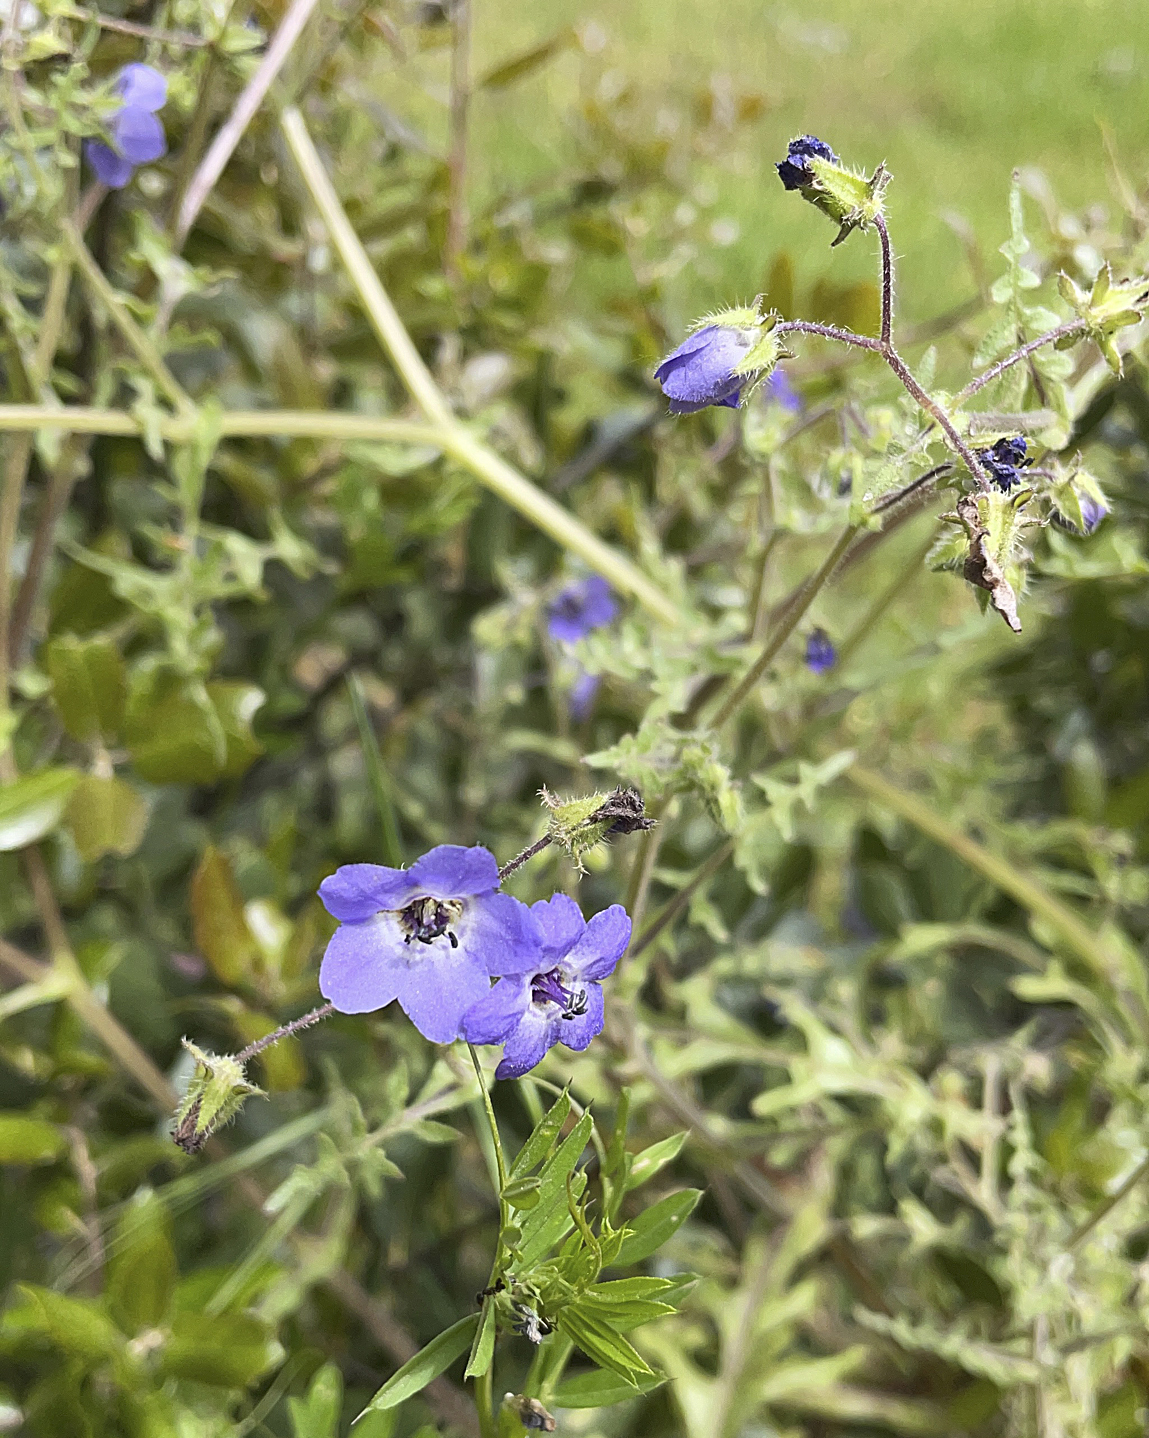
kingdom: Plantae
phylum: Tracheophyta
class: Magnoliopsida
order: Boraginales
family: Hydrophyllaceae
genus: Pholistoma
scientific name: Pholistoma auritum
